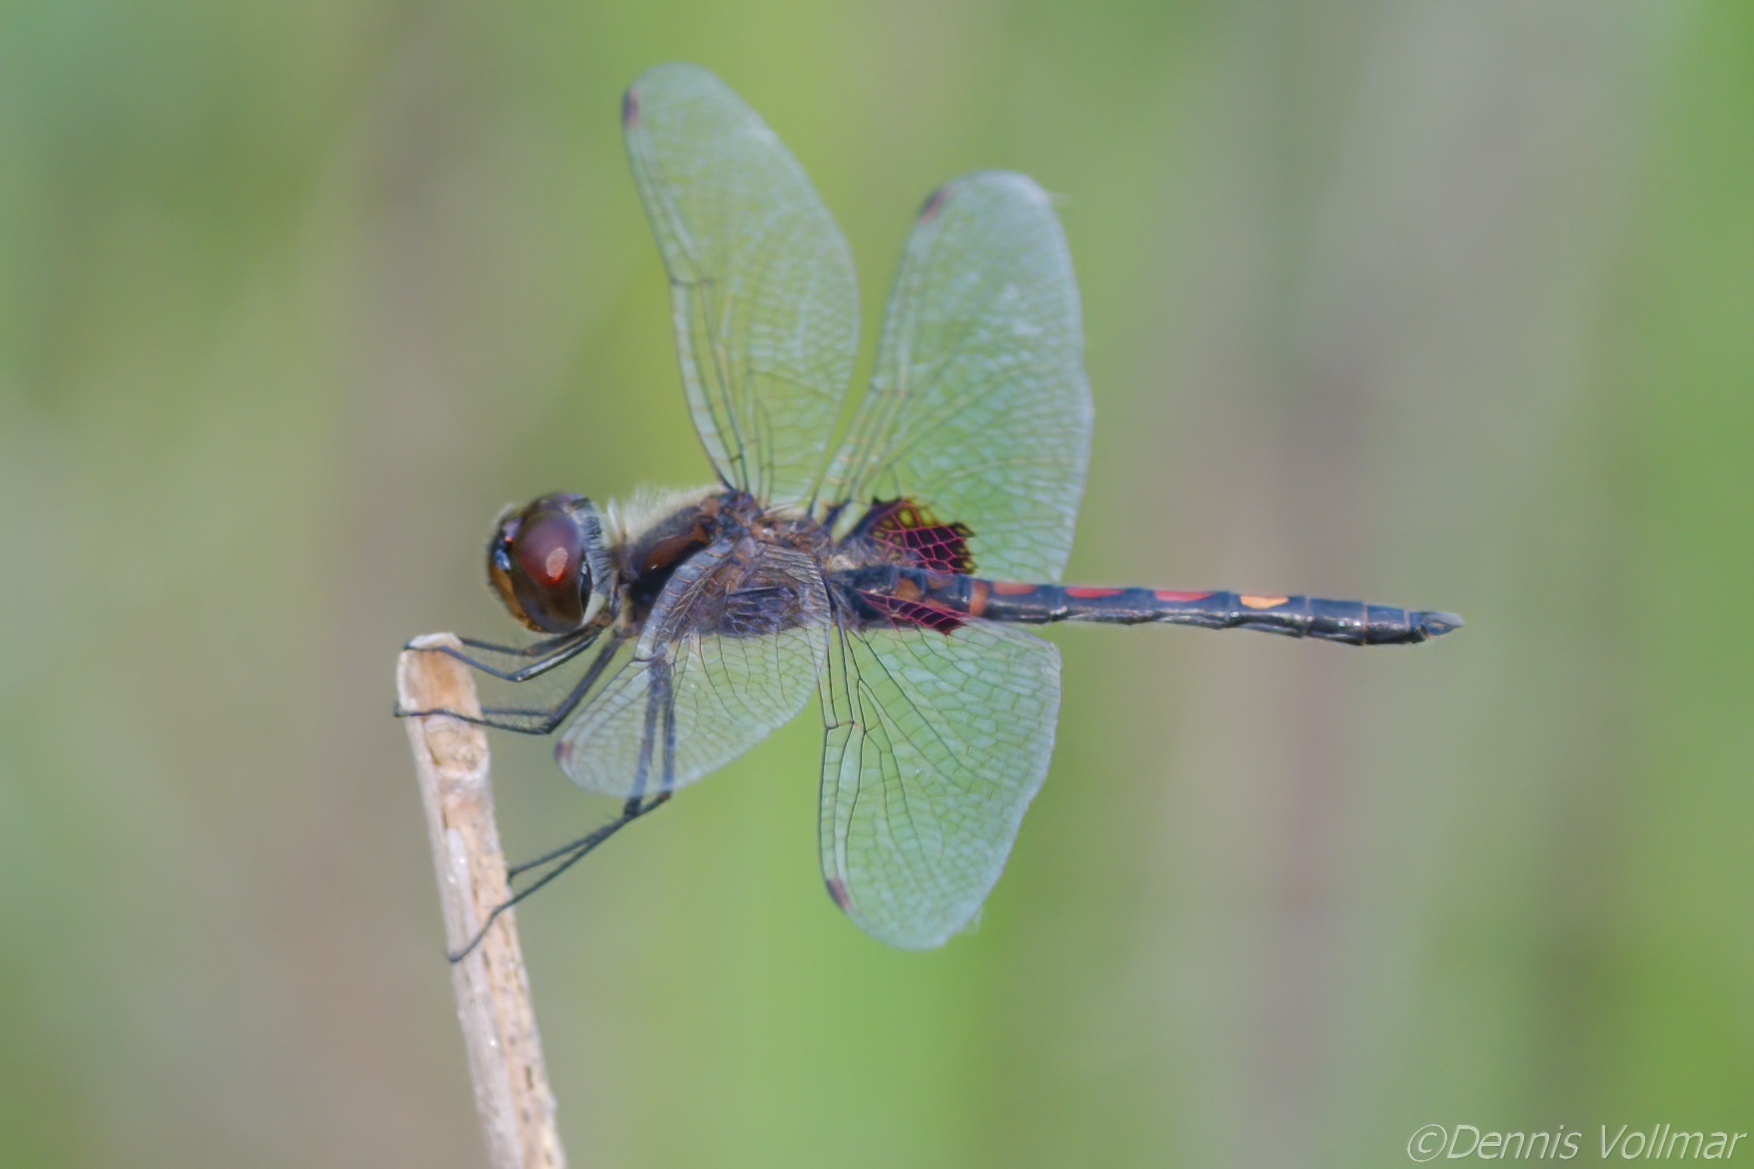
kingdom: Animalia
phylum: Arthropoda
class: Insecta
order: Odonata
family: Libellulidae
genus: Celithemis
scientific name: Celithemis ornata
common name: Ornate pennant
